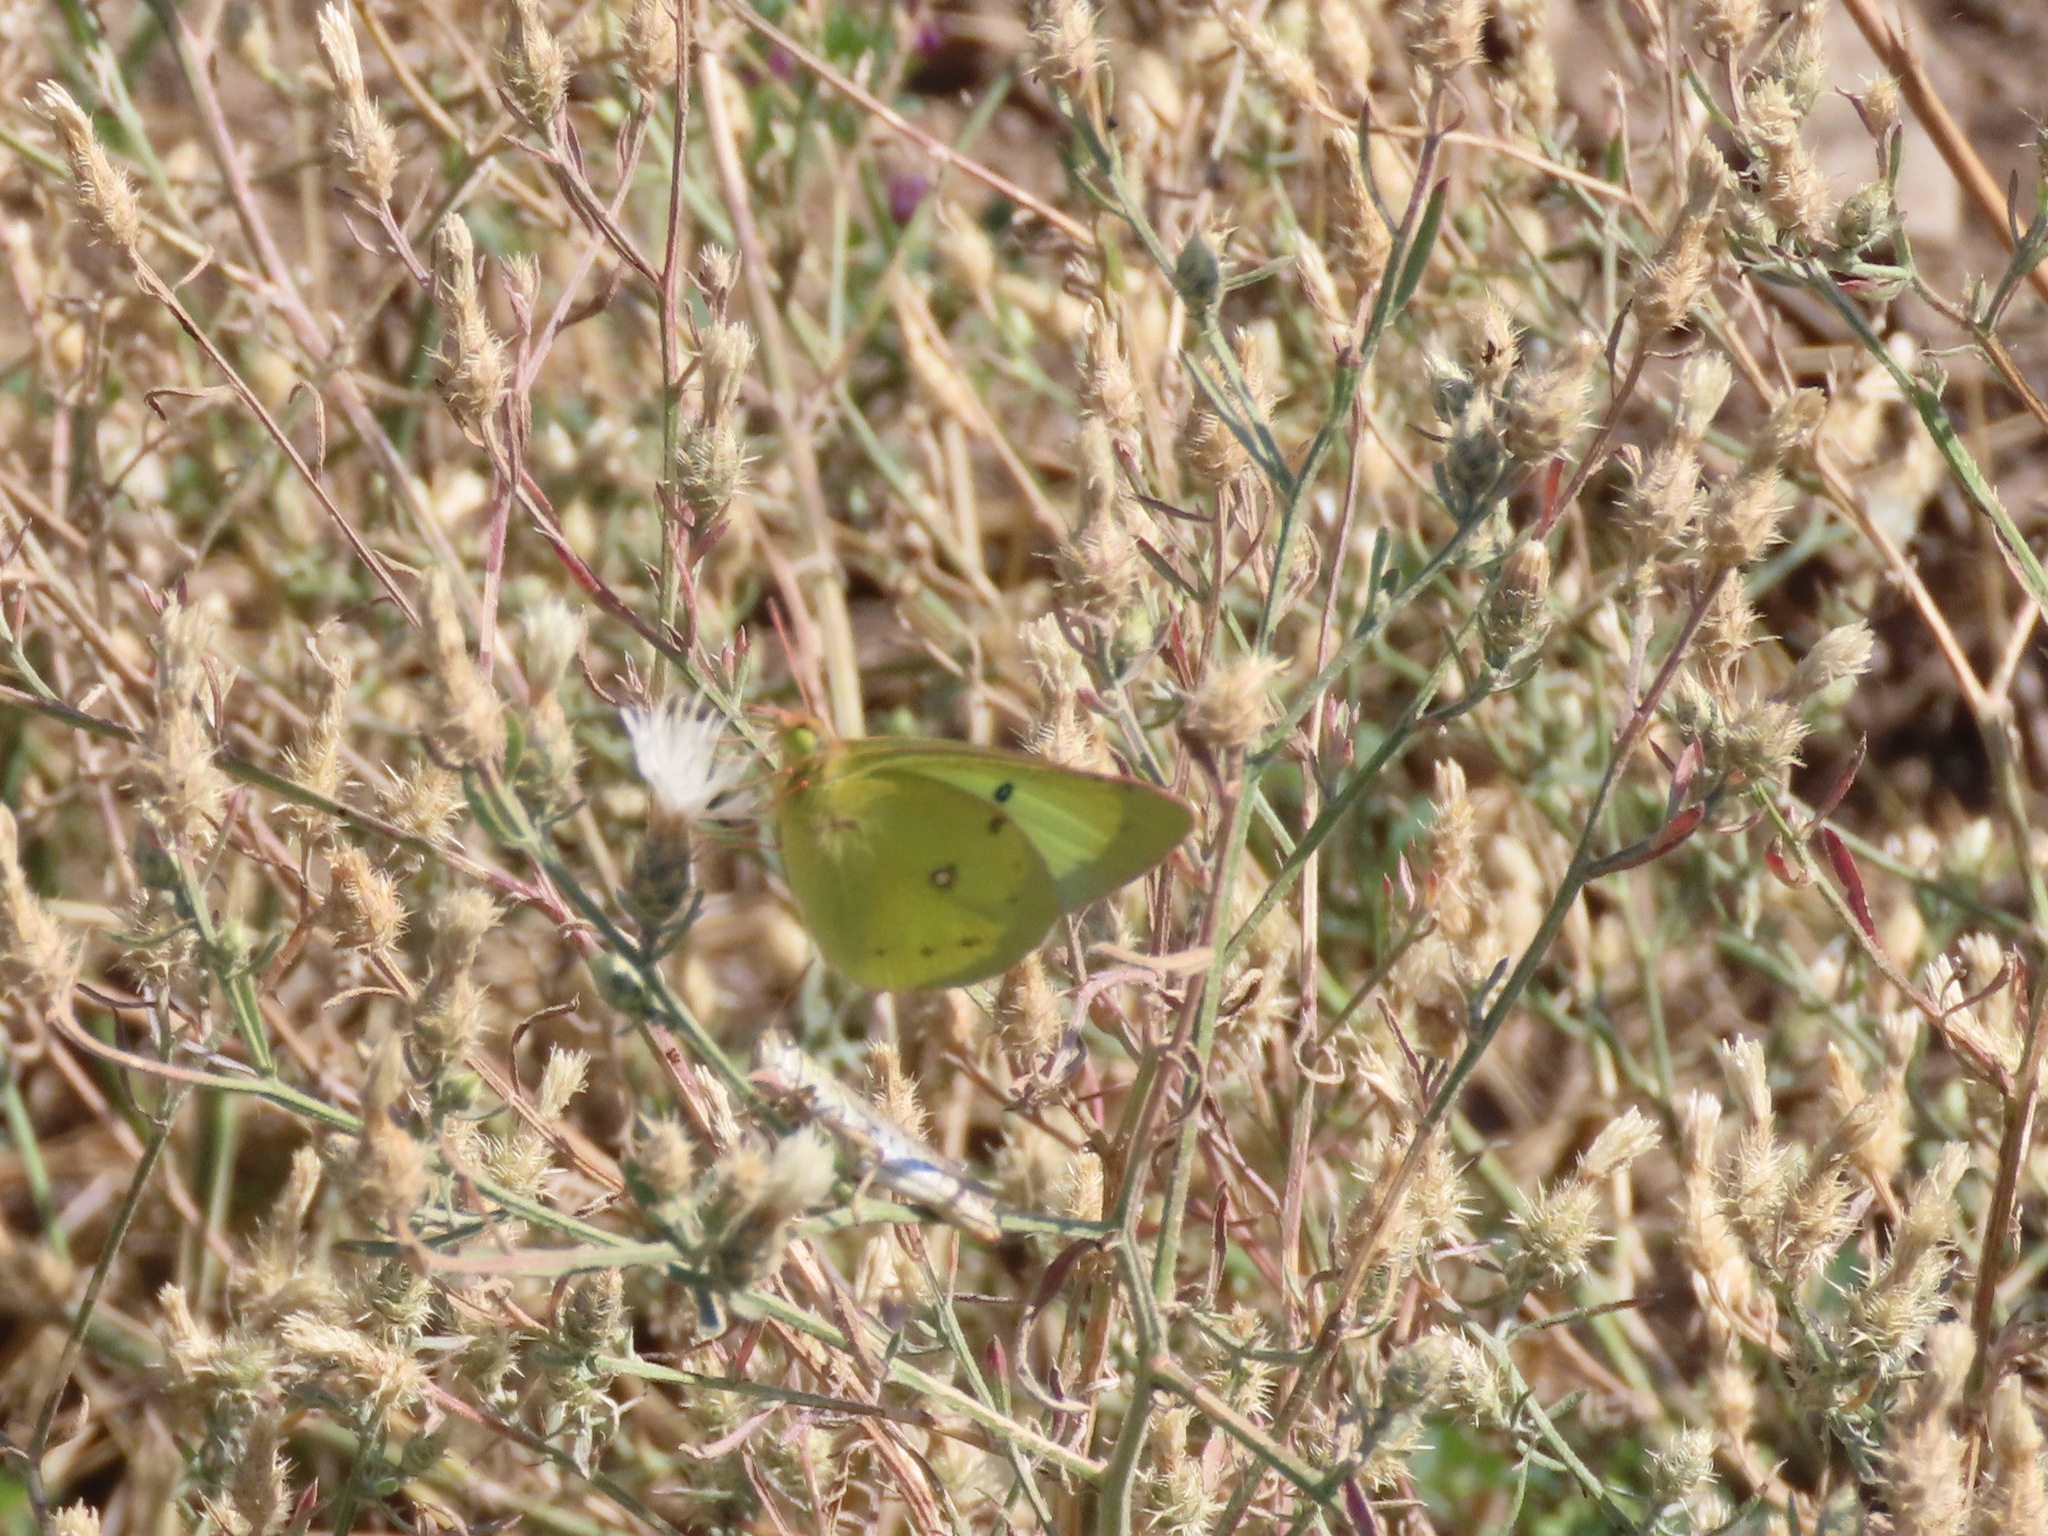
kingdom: Animalia
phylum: Arthropoda
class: Insecta
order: Lepidoptera
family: Pieridae
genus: Colias
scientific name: Colias philodice
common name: Clouded sulphur
